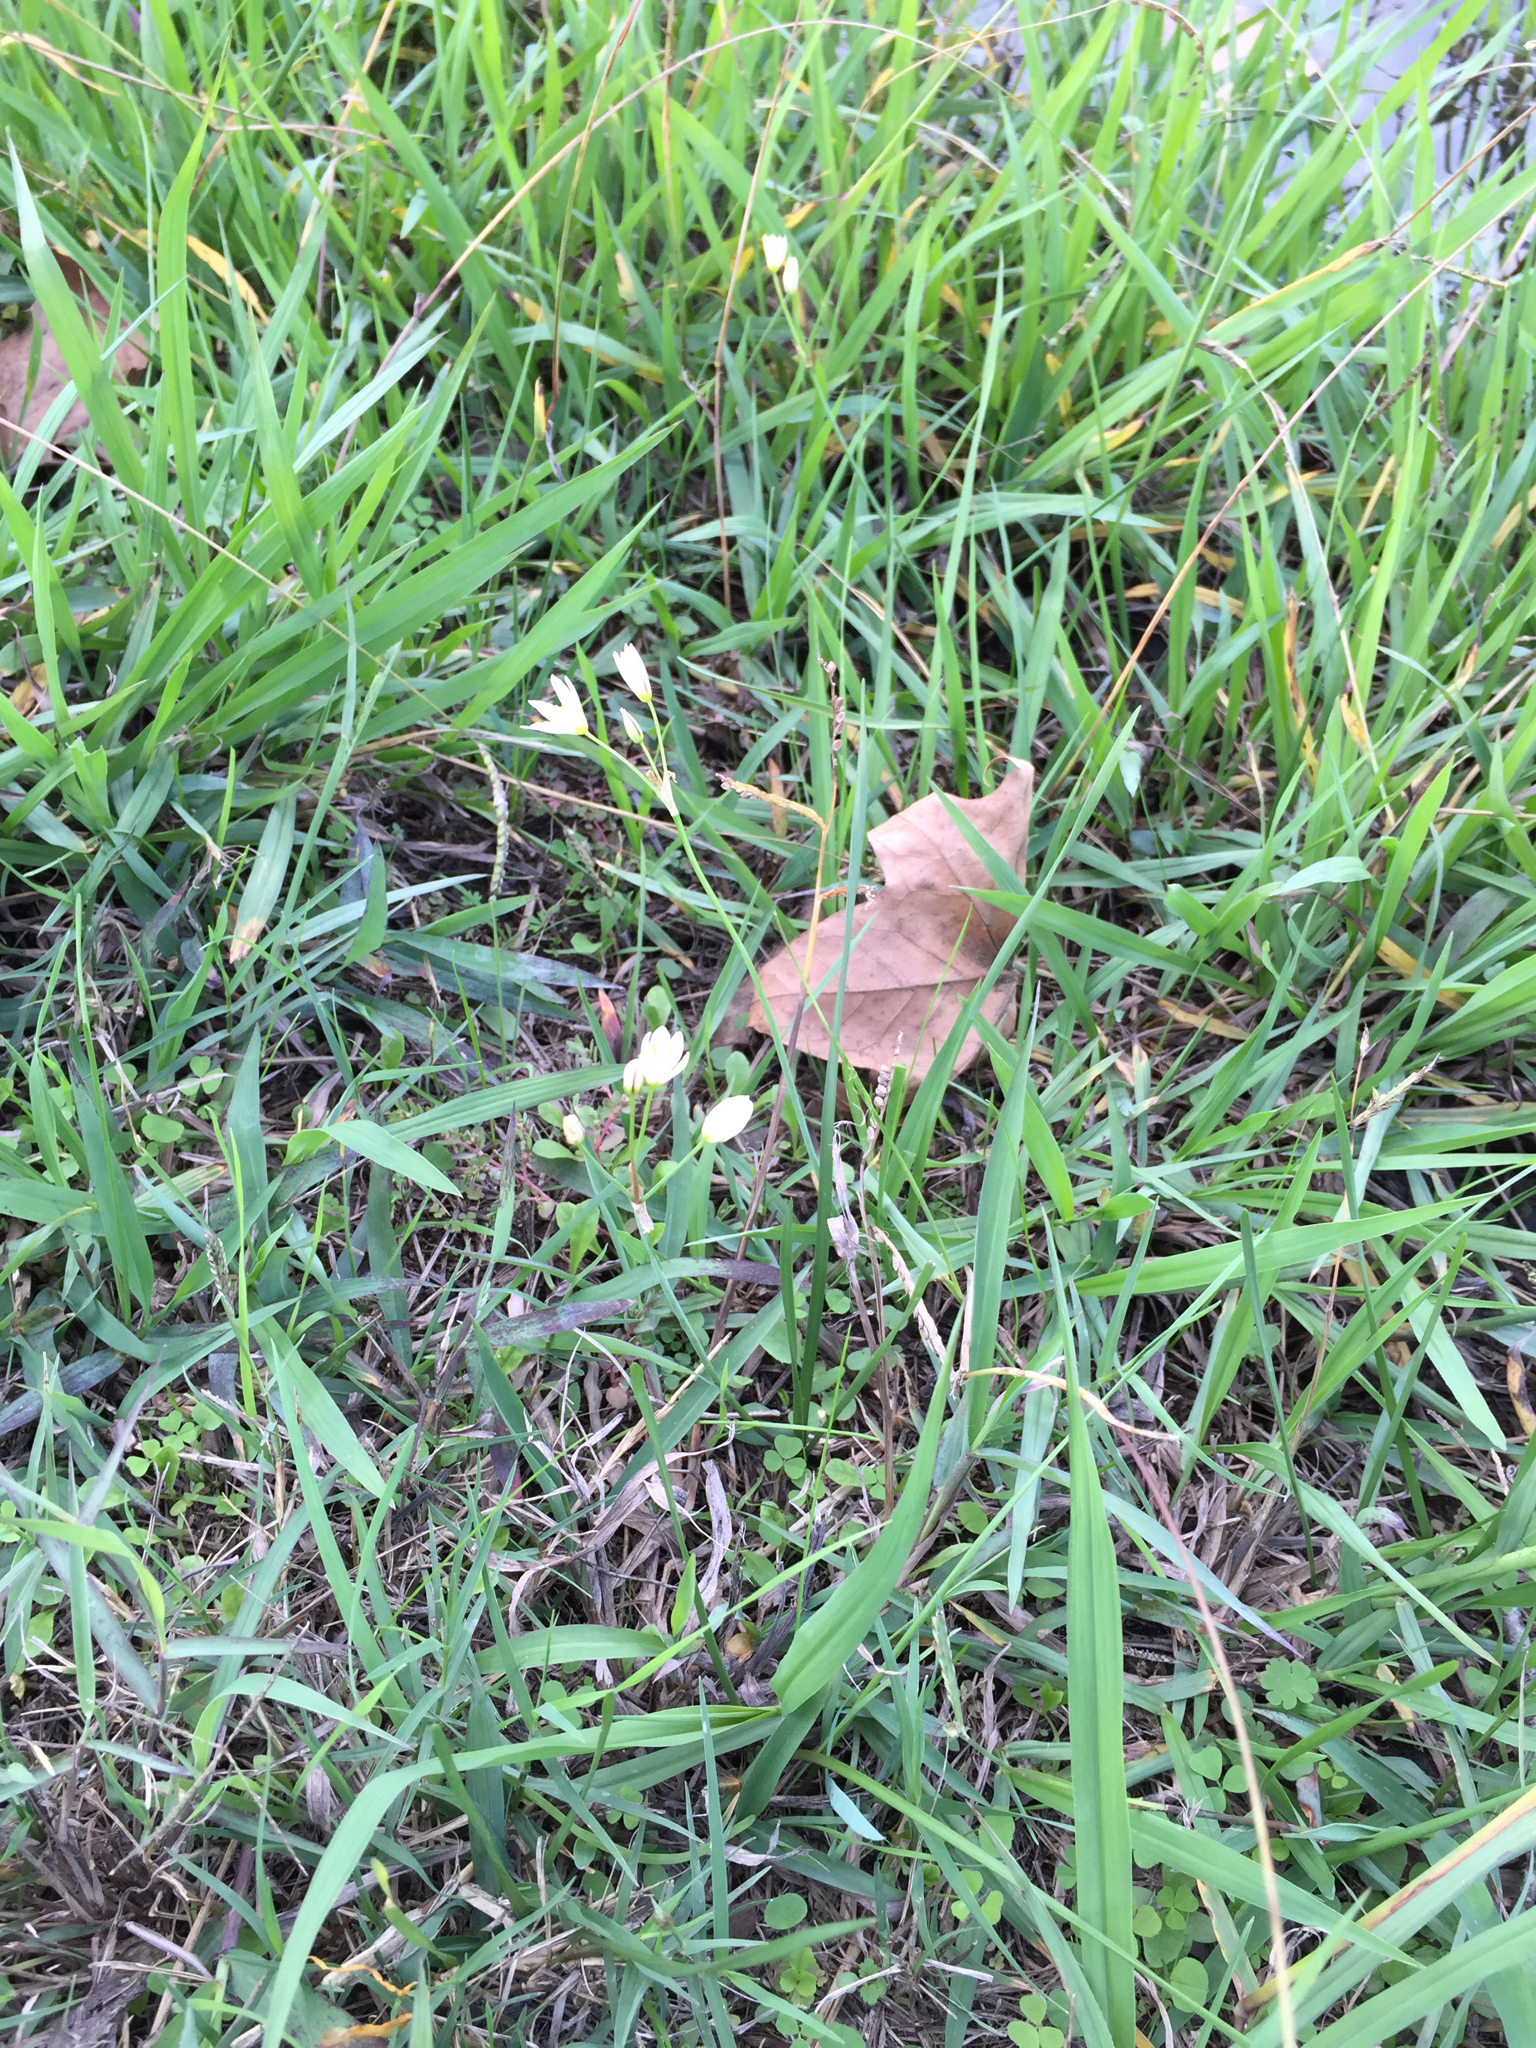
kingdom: Plantae
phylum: Tracheophyta
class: Liliopsida
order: Asparagales
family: Amaryllidaceae
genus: Nothoscordum
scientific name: Nothoscordum bivalve
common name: Crow-poison
